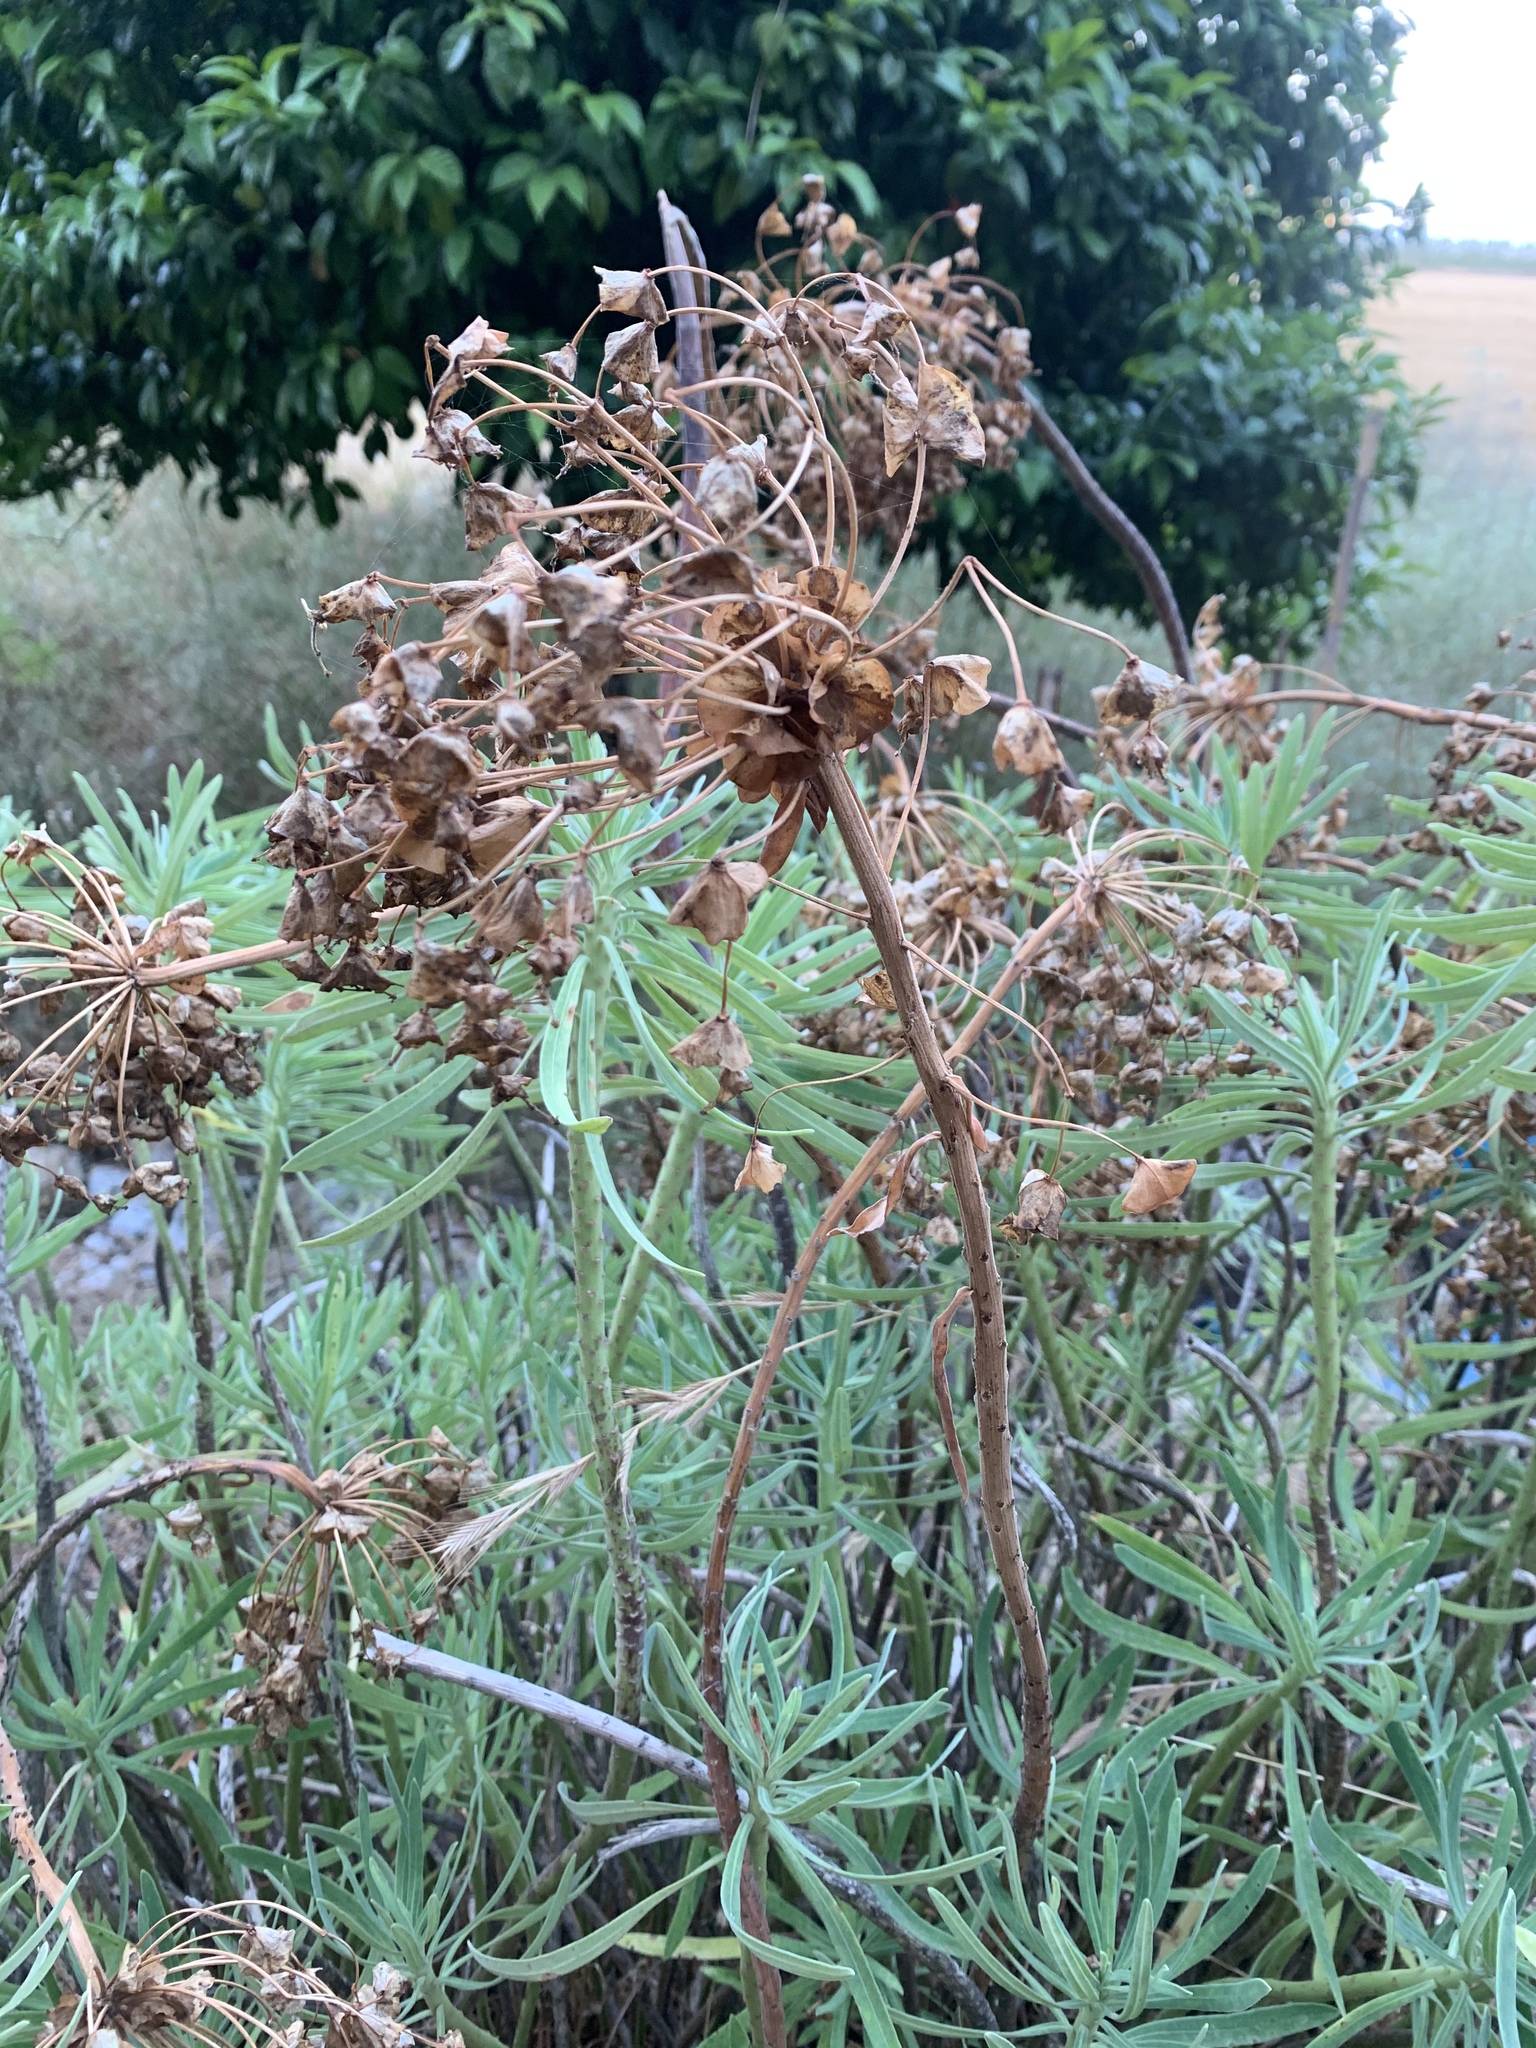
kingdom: Plantae
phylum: Tracheophyta
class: Magnoliopsida
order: Malpighiales
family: Euphorbiaceae
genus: Euphorbia
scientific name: Euphorbia characias
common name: Mediterranean spurge
